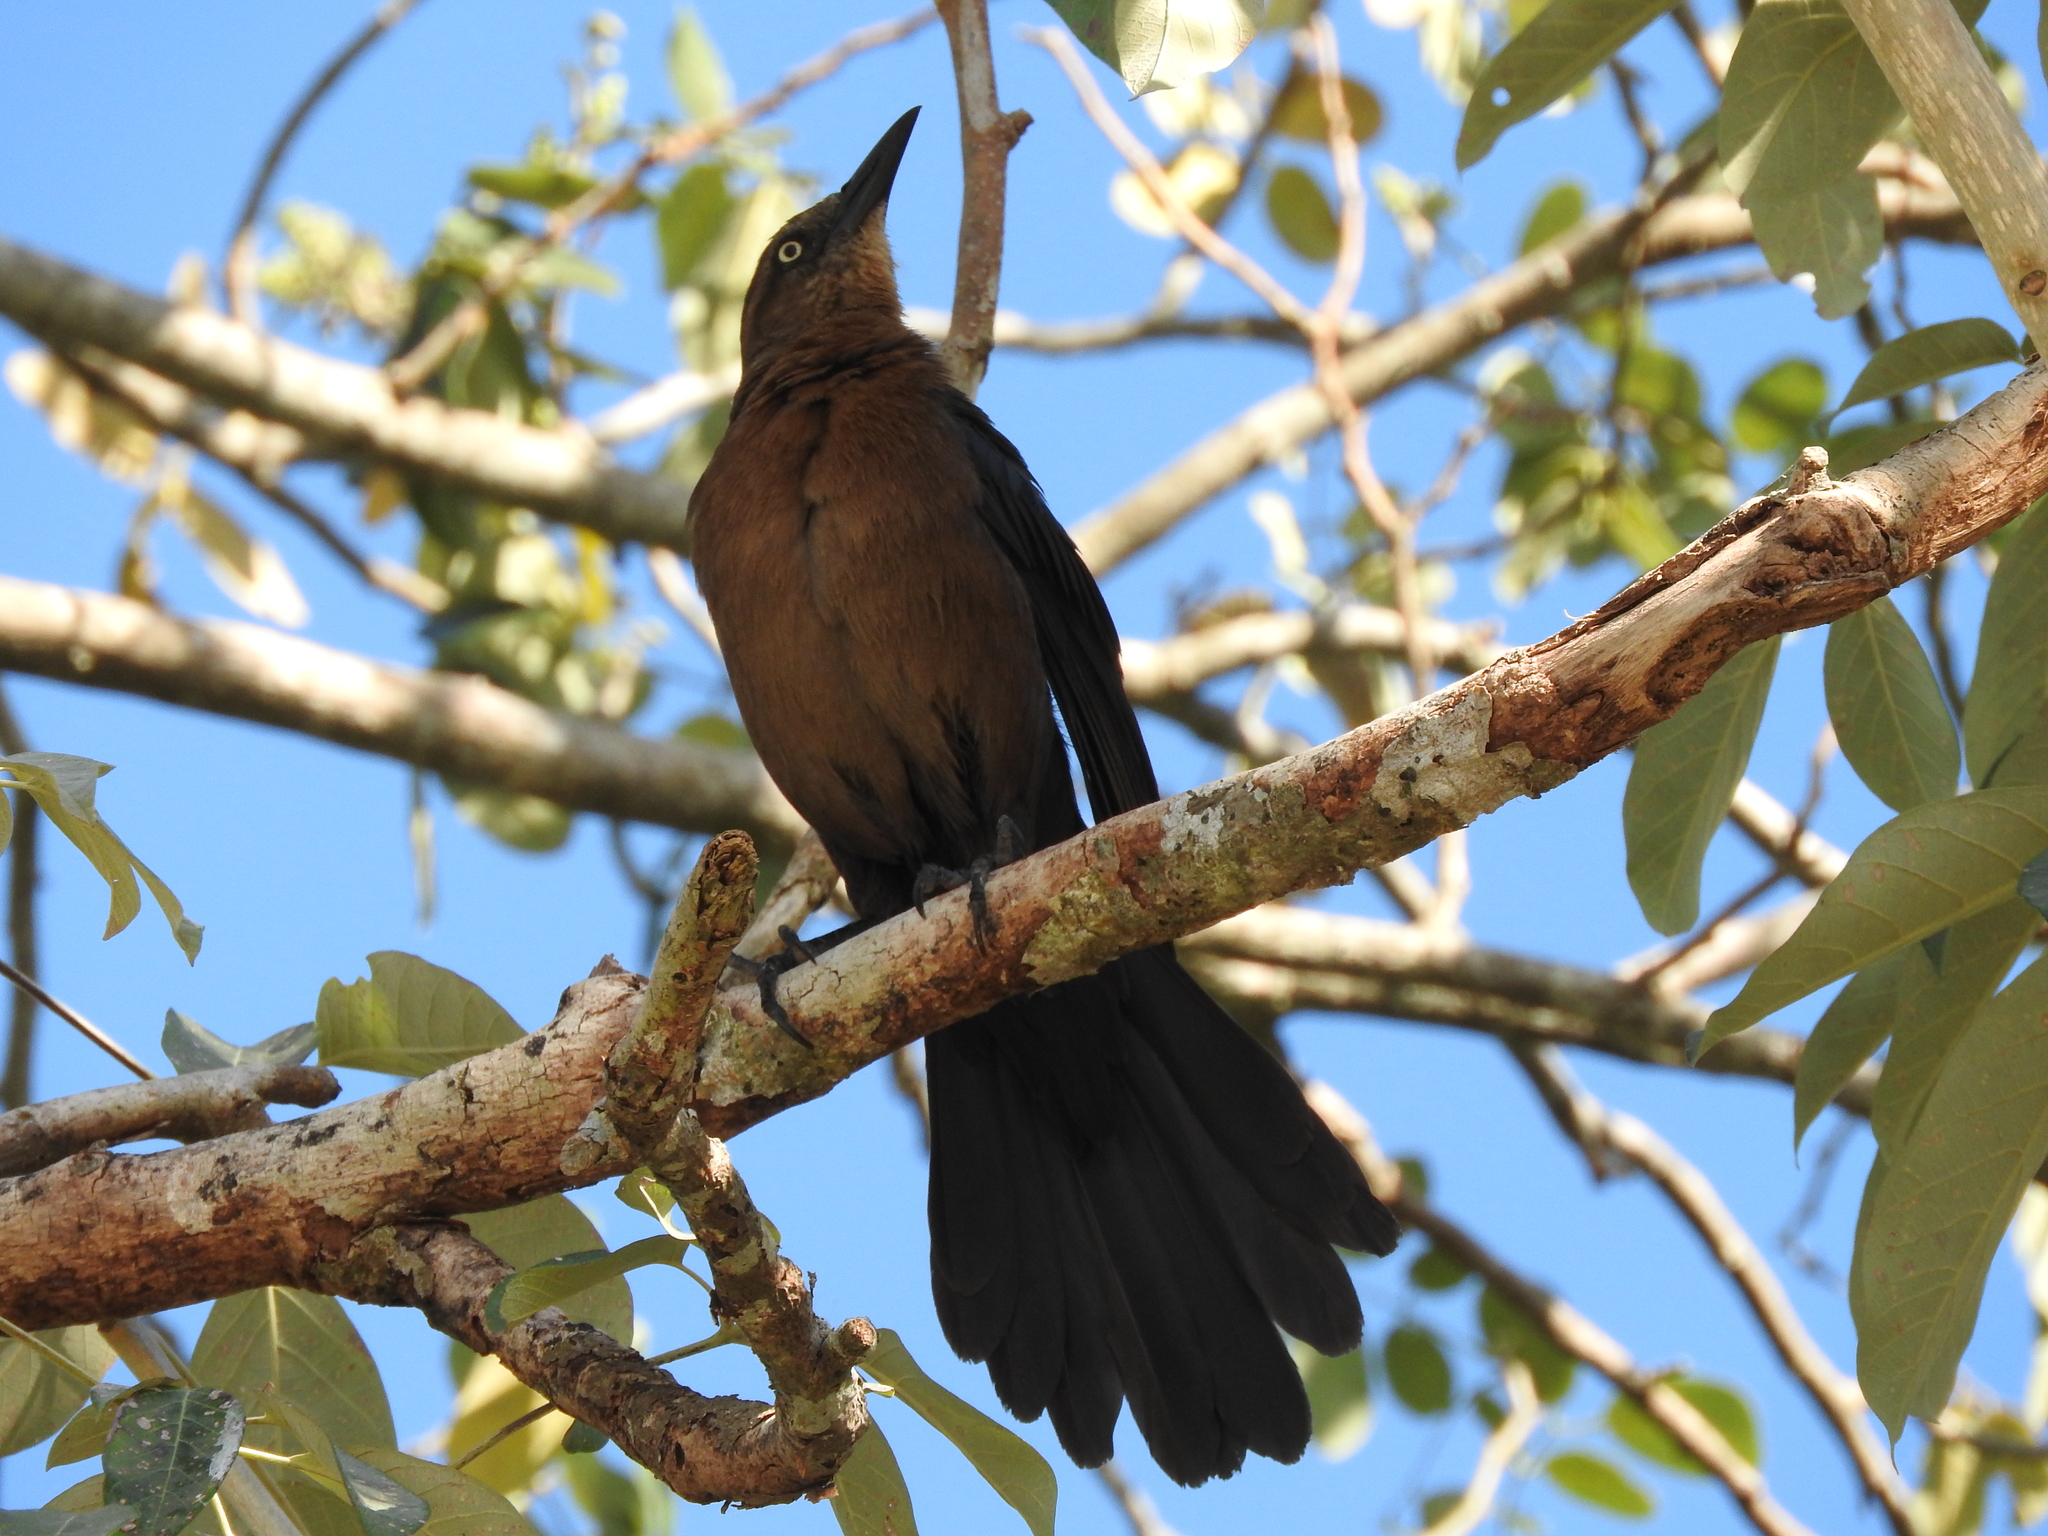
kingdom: Animalia
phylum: Chordata
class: Aves
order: Passeriformes
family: Icteridae
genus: Quiscalus
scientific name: Quiscalus mexicanus
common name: Great-tailed grackle
